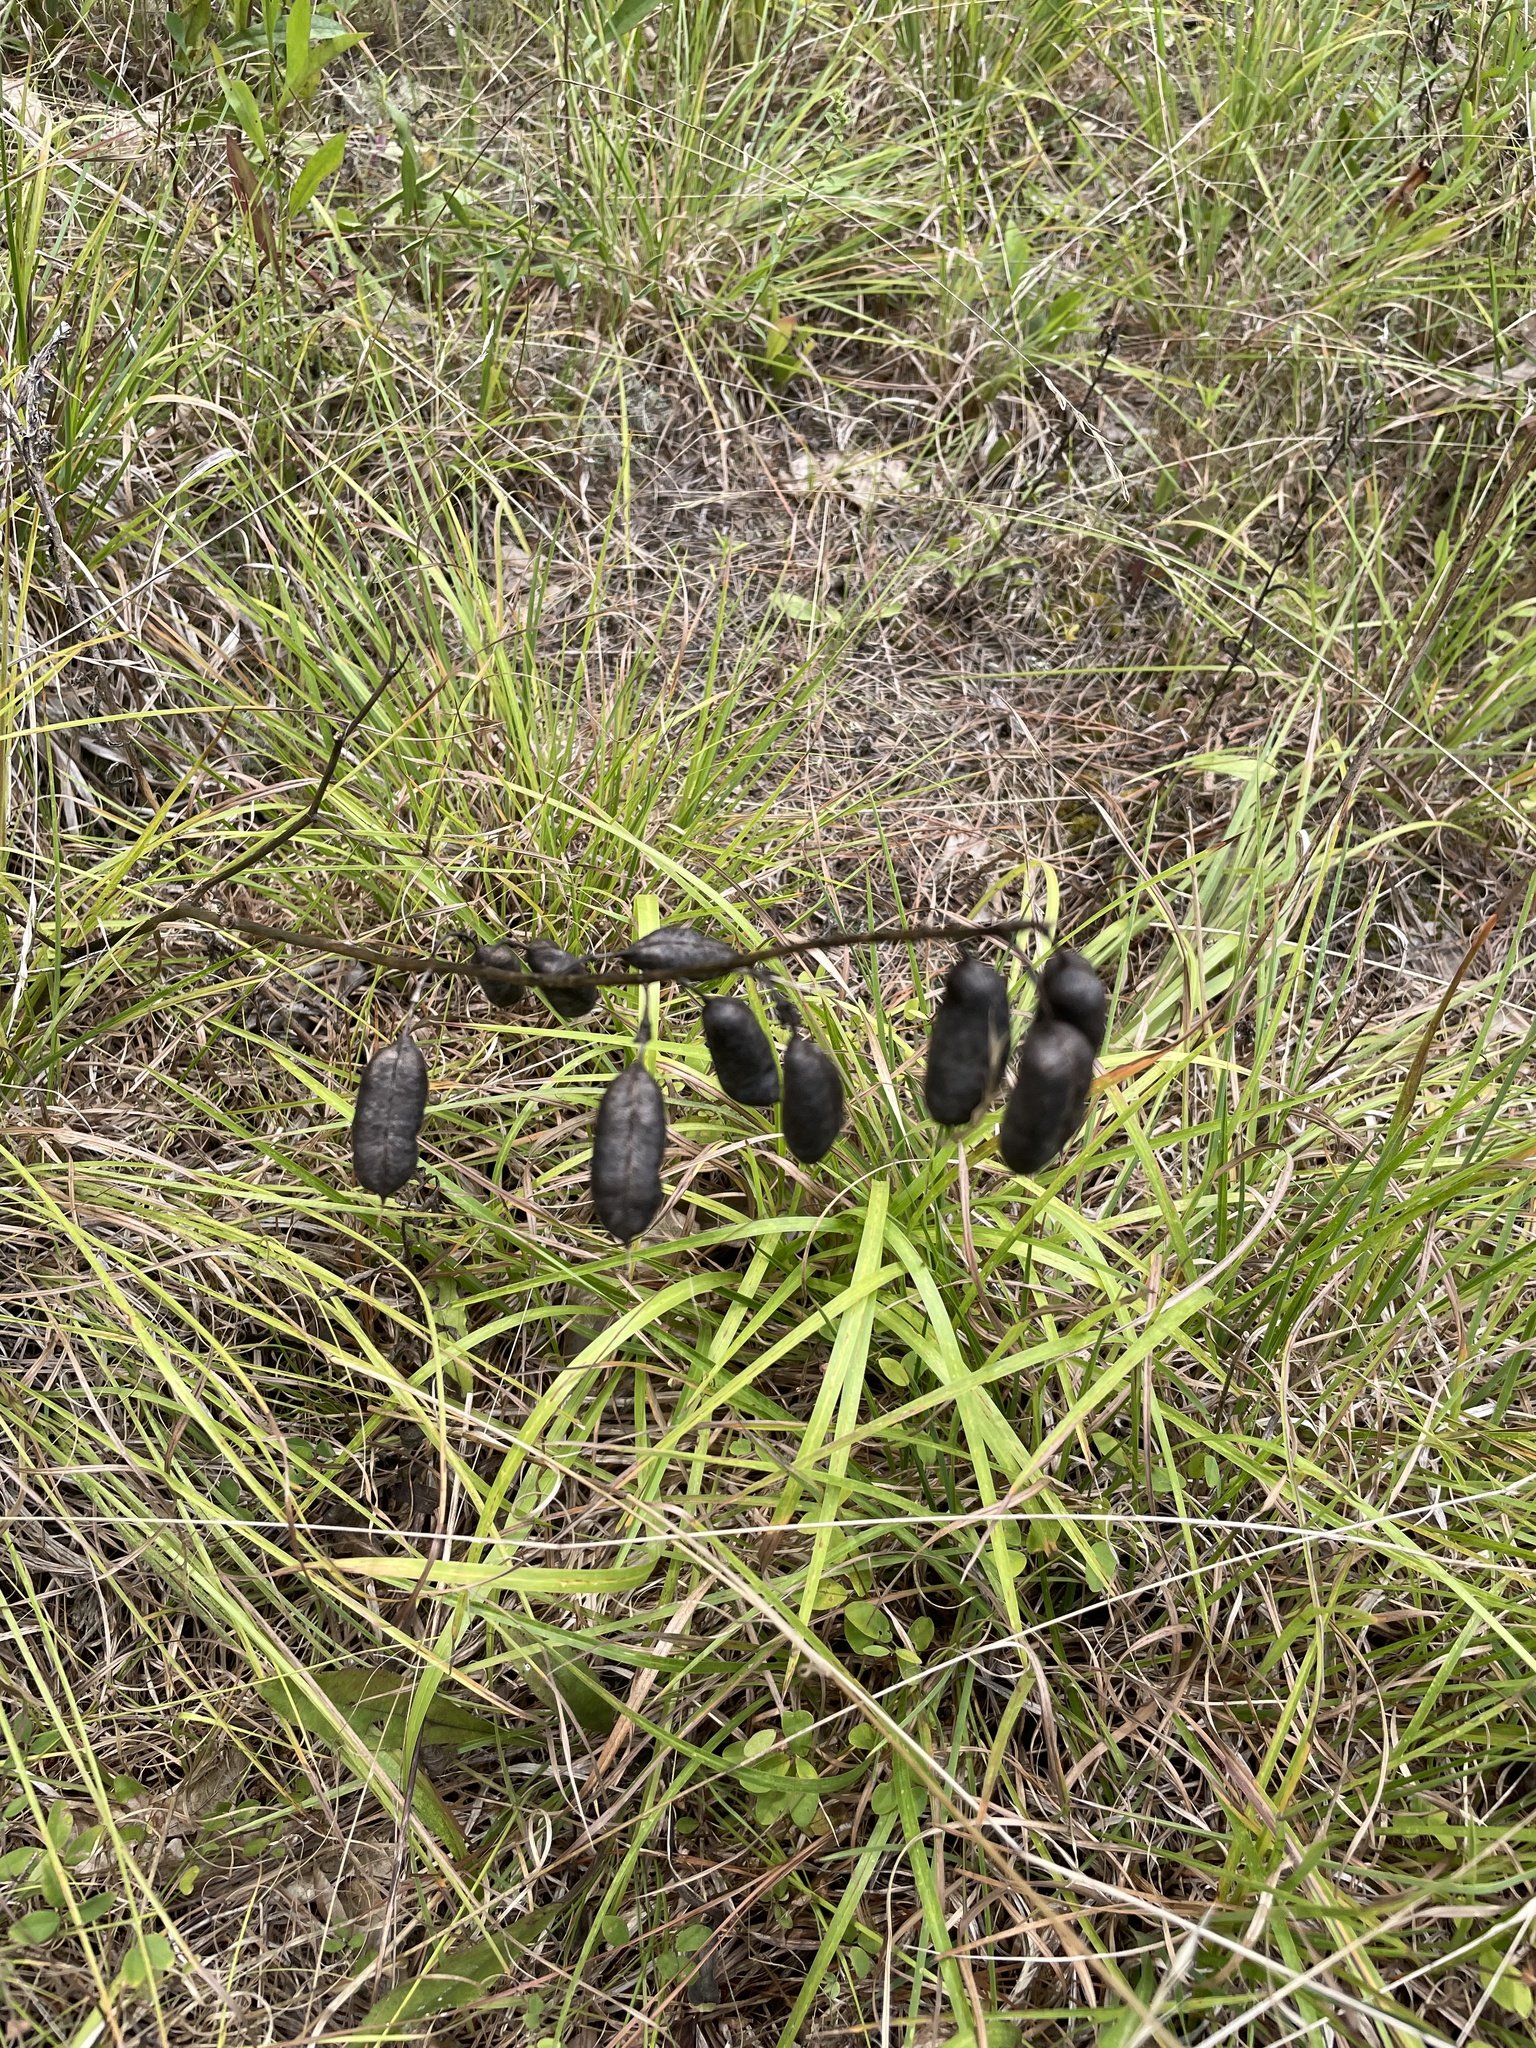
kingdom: Plantae
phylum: Tracheophyta
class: Magnoliopsida
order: Fabales
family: Fabaceae
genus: Baptisia
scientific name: Baptisia alba
